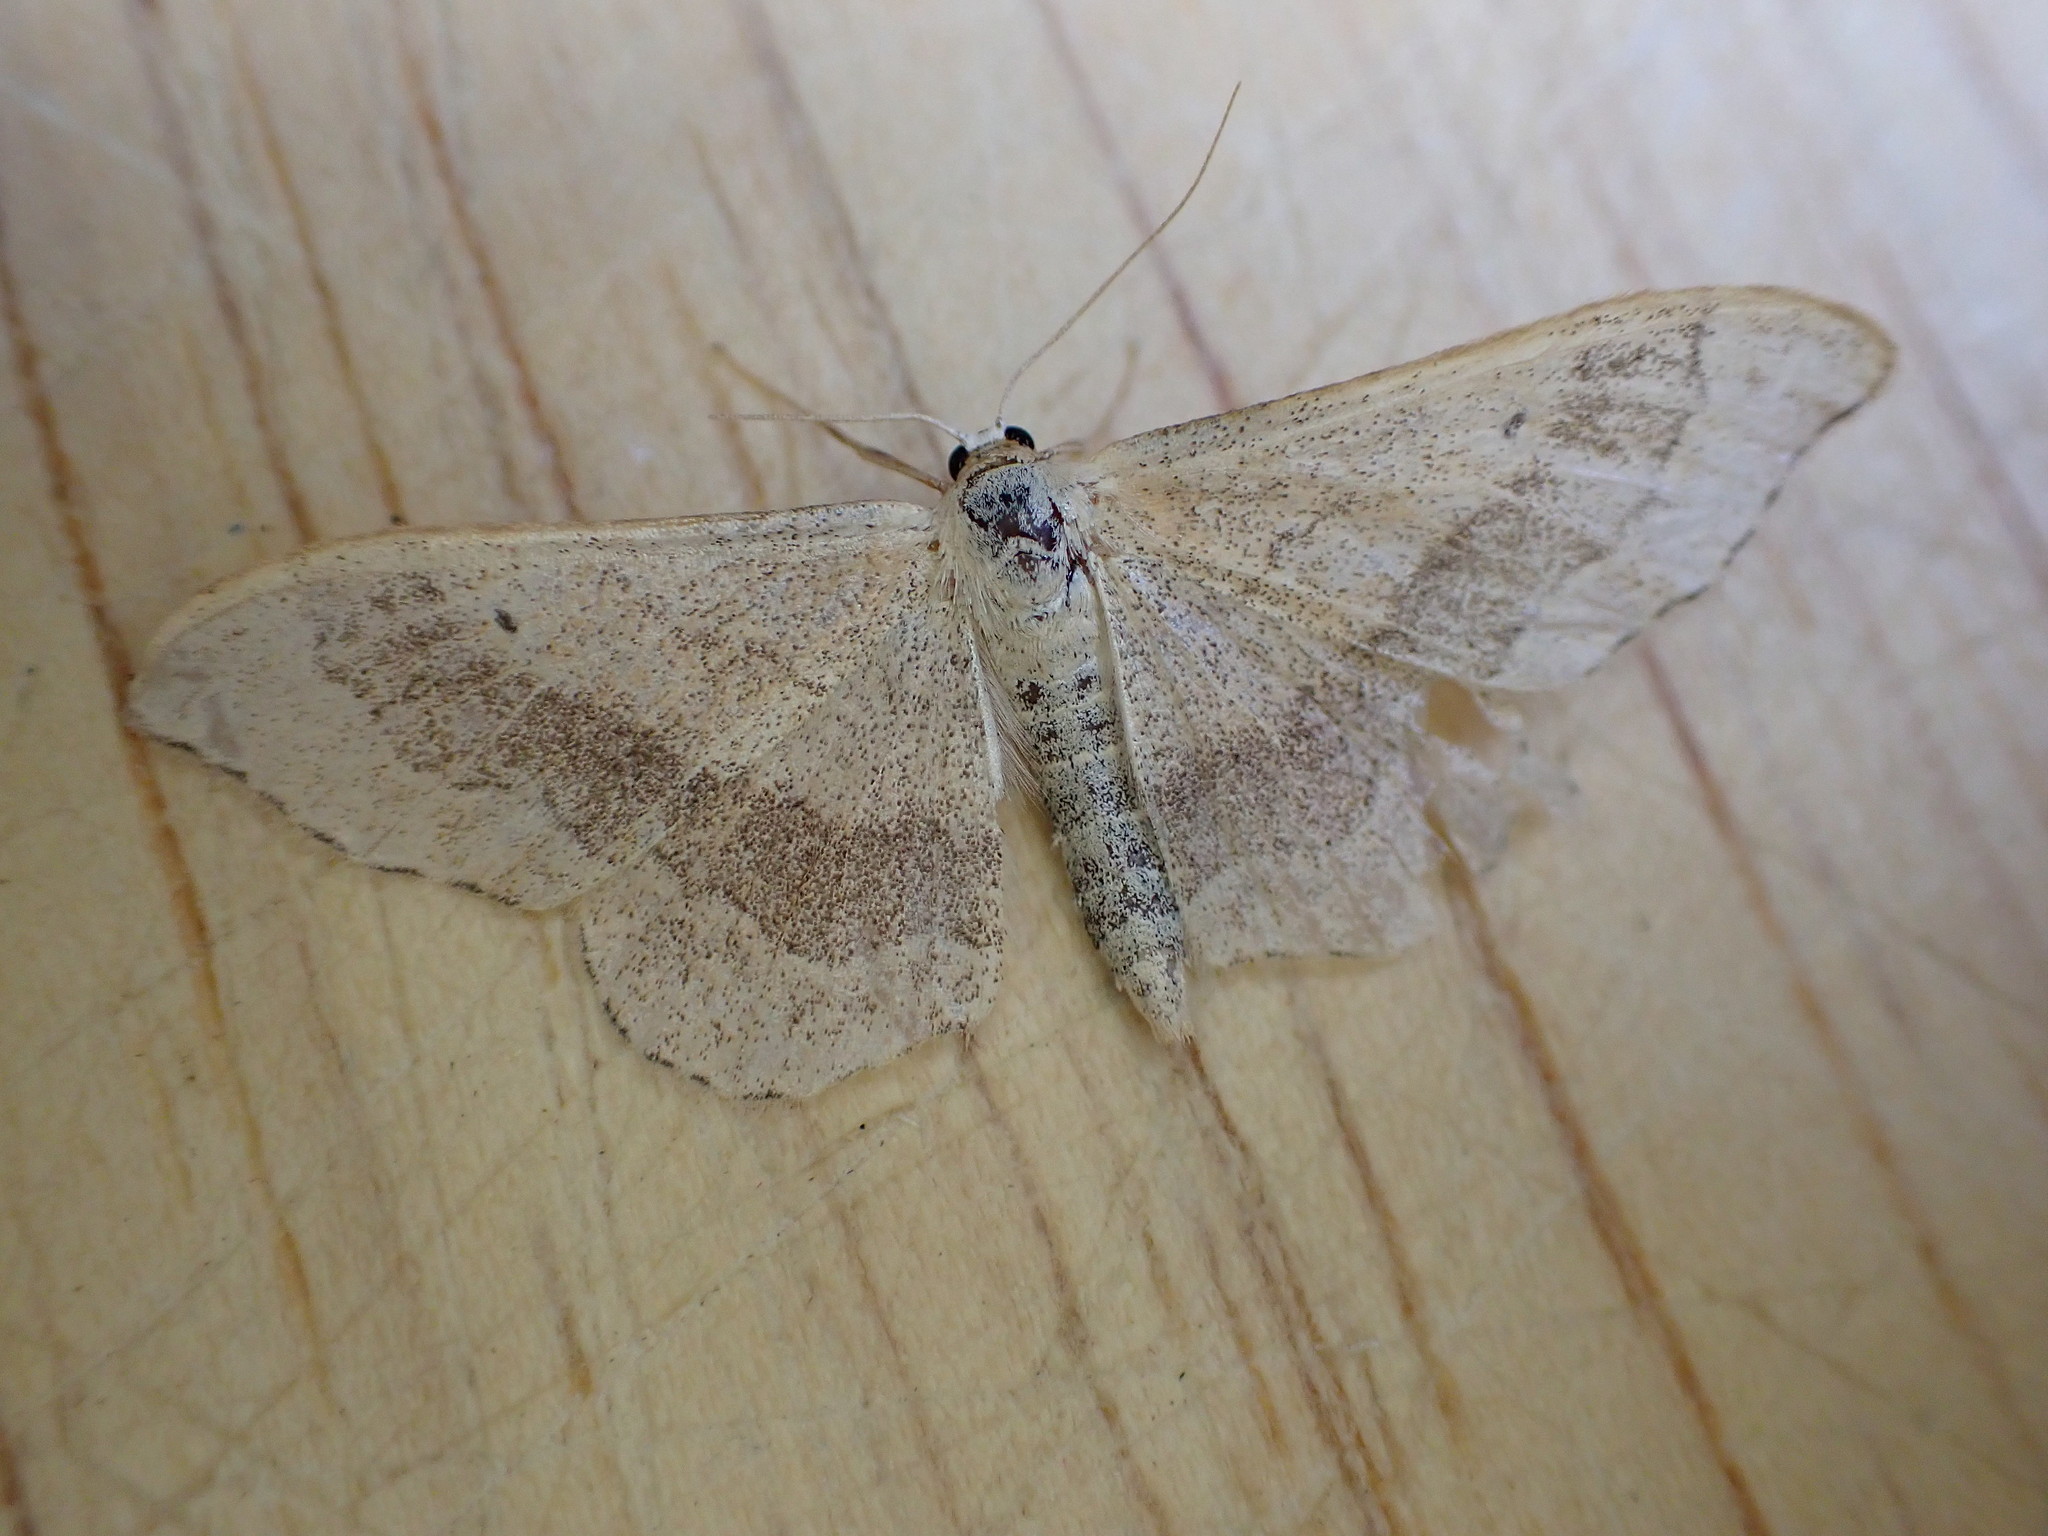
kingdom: Animalia
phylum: Arthropoda
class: Insecta
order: Lepidoptera
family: Geometridae
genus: Idaea
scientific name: Idaea aversata
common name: Riband wave
